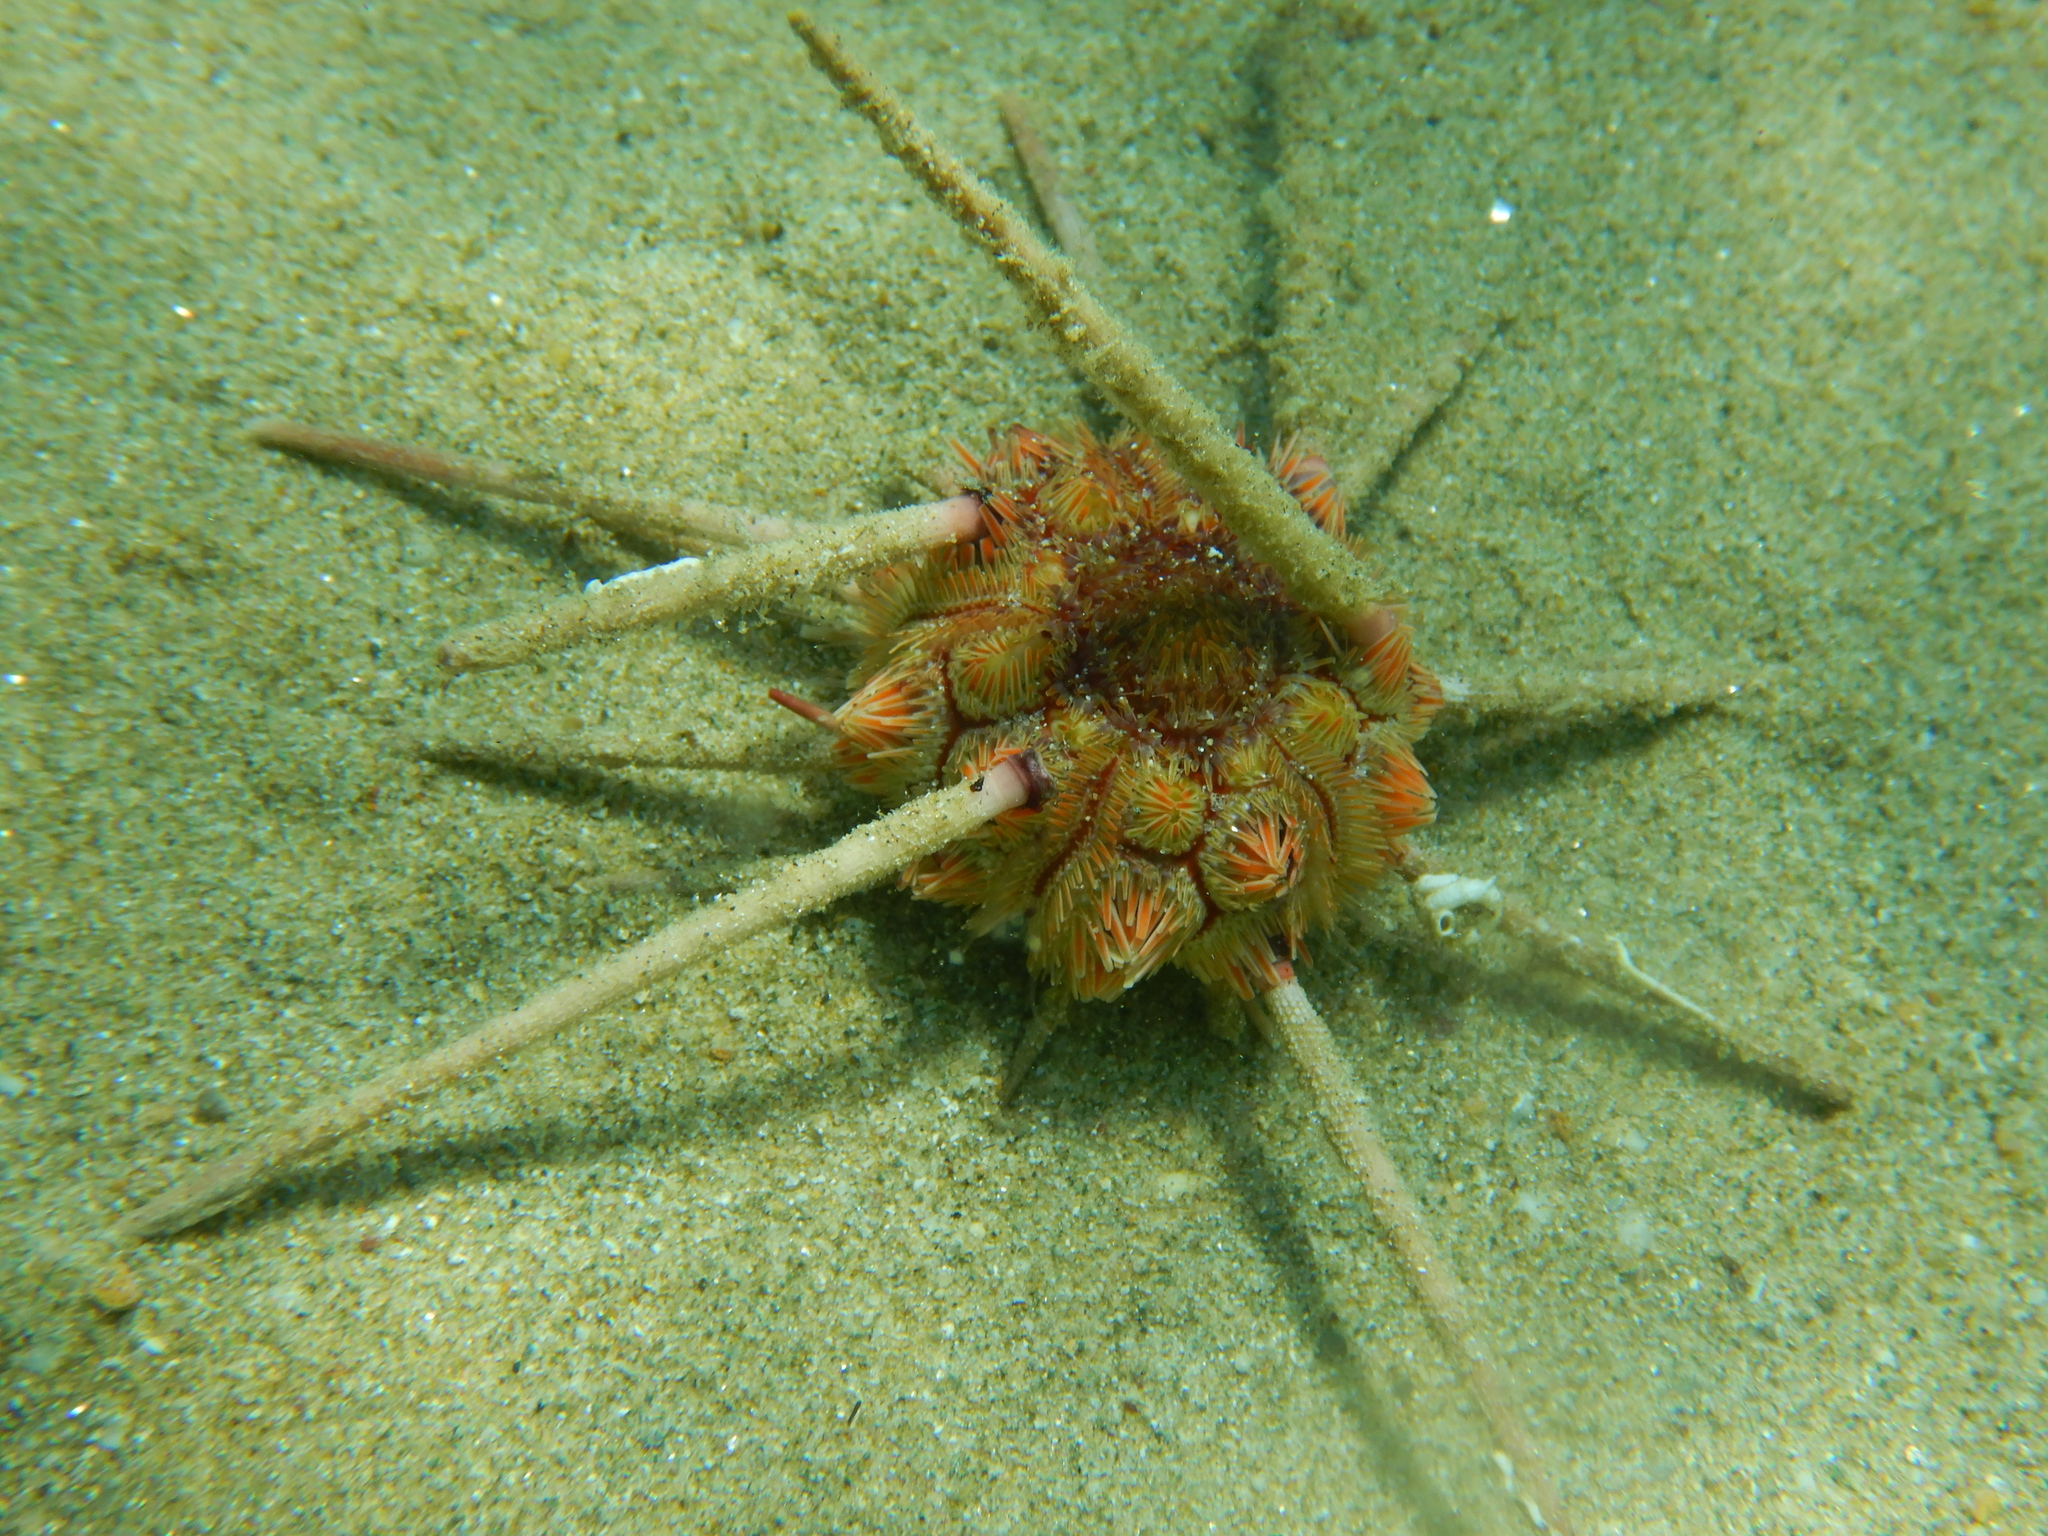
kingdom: Animalia
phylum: Echinodermata
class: Echinoidea
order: Cidaroida
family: Cidaridae
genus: Stylocidaris
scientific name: Stylocidaris affinis
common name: Red lance urchin
